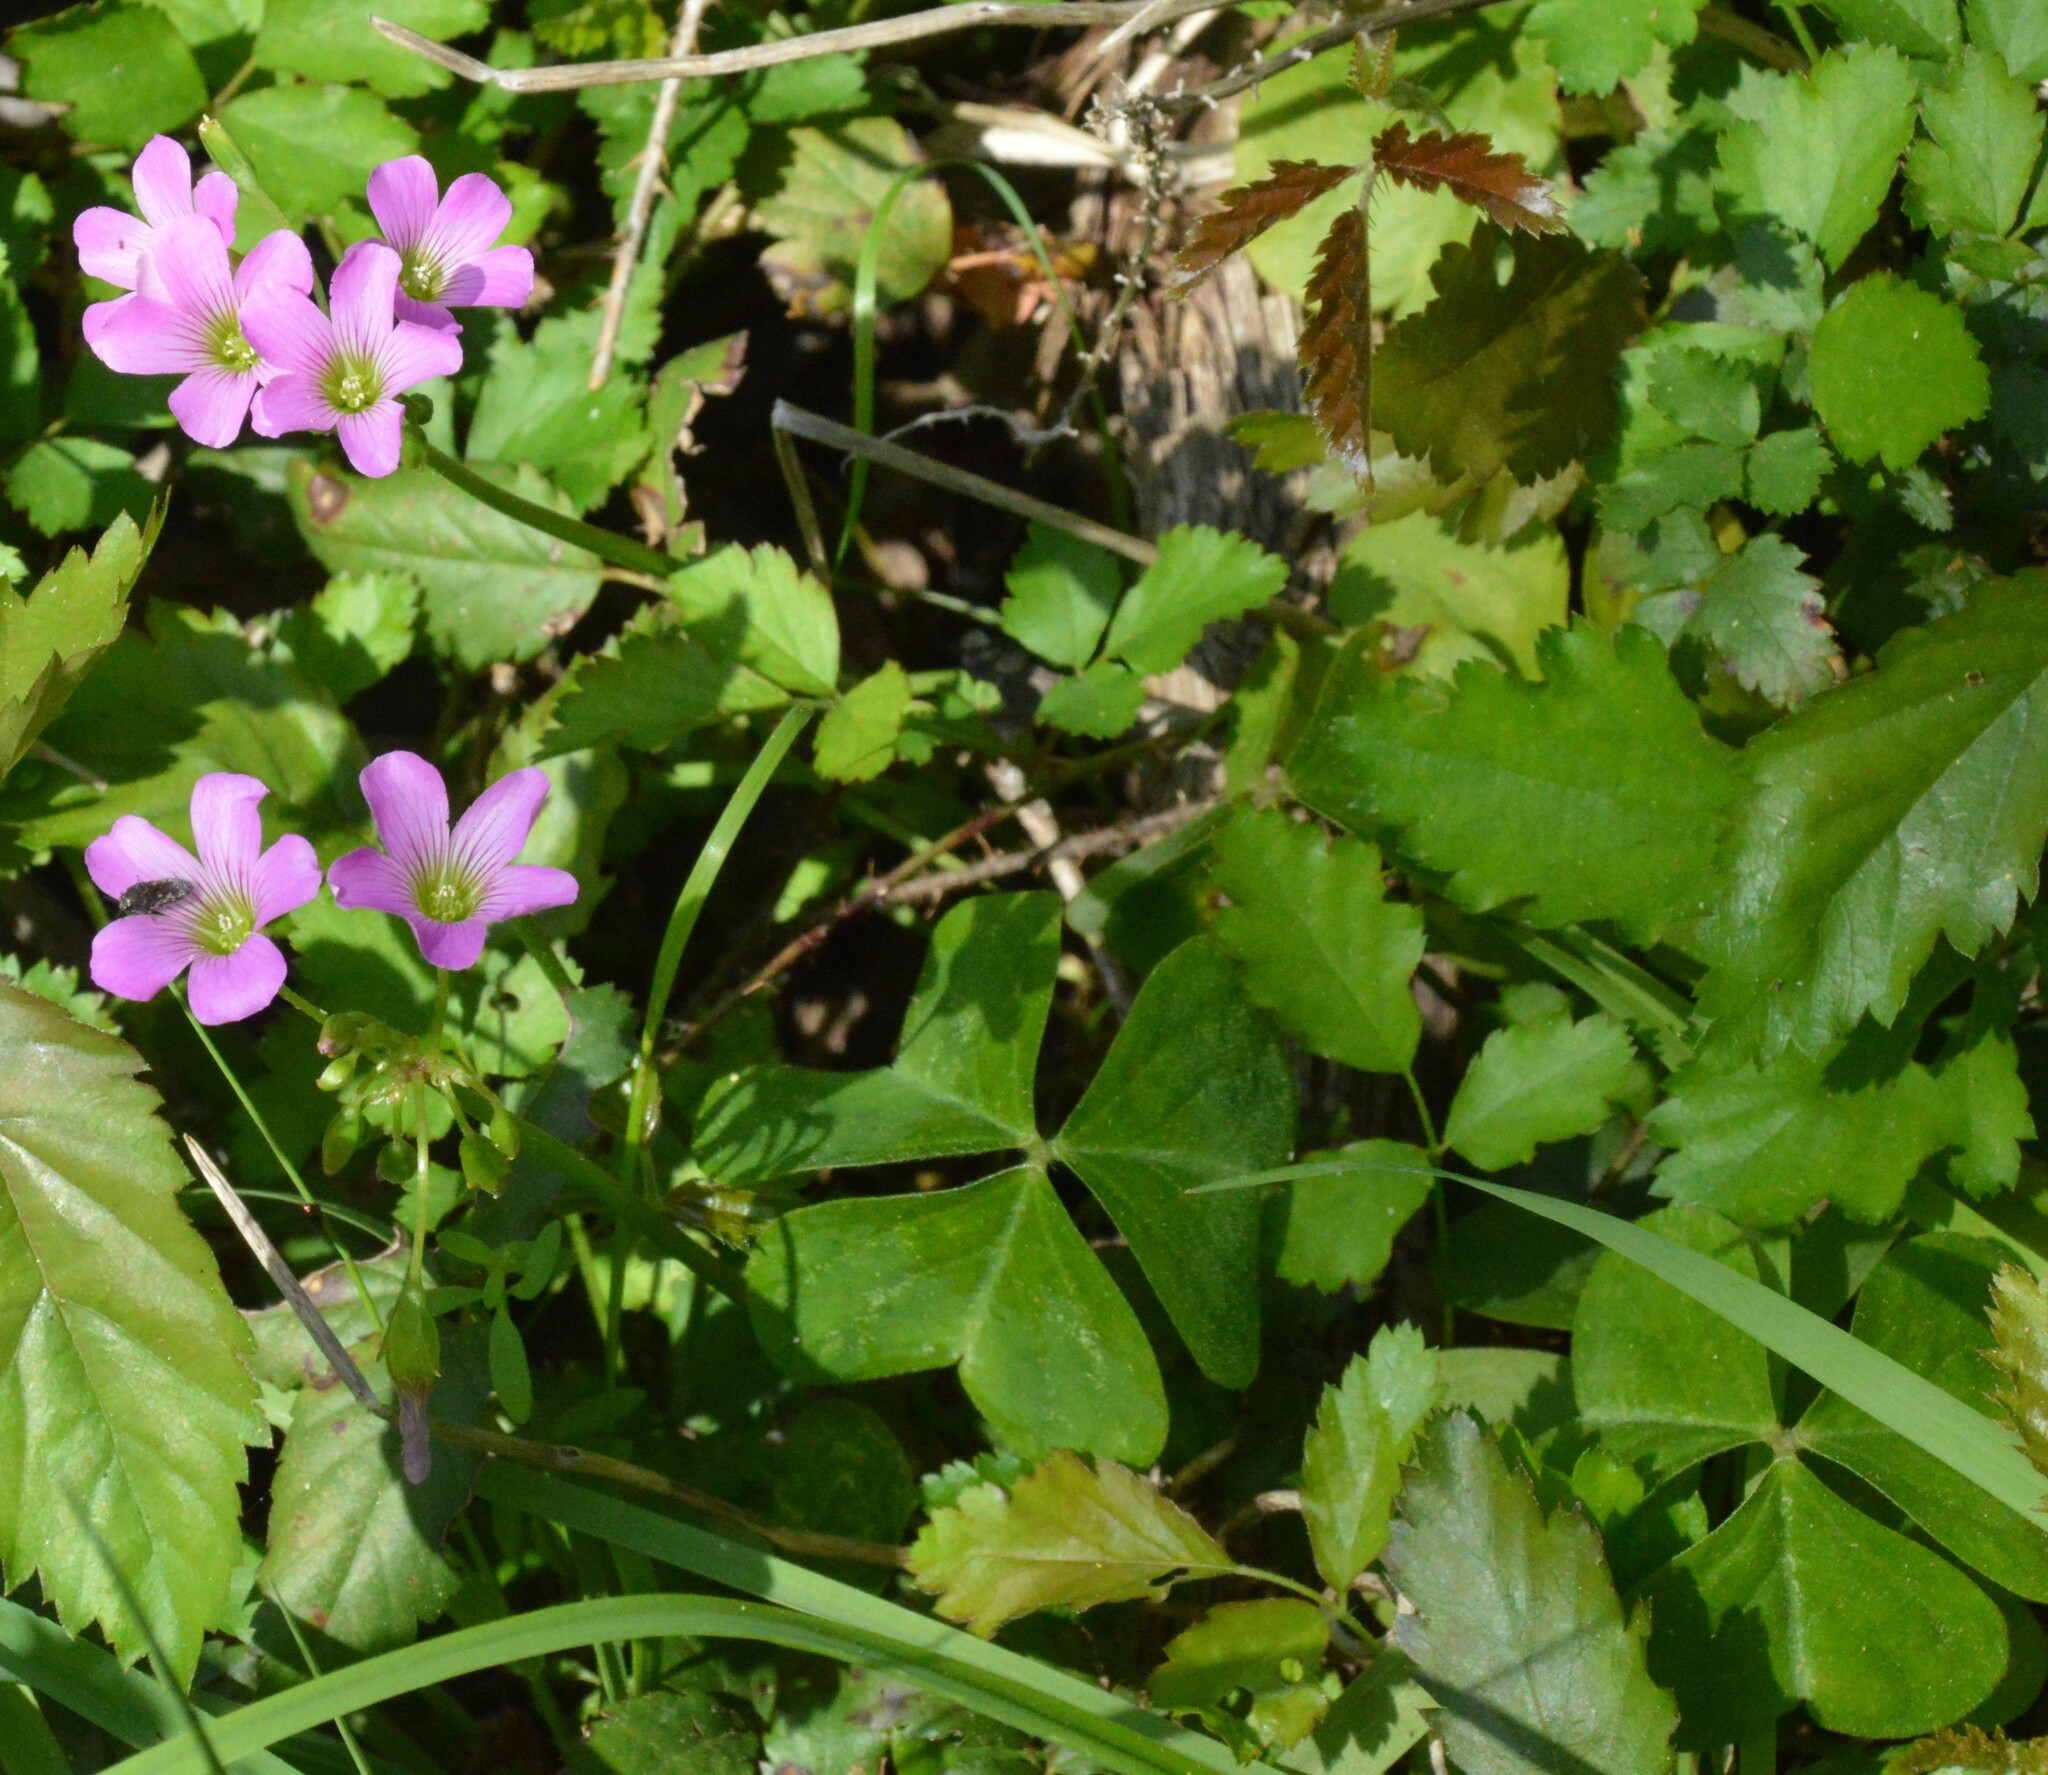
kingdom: Plantae
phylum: Tracheophyta
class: Magnoliopsida
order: Oxalidales
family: Oxalidaceae
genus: Oxalis
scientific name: Oxalis debilis
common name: Large-flowered pink-sorrel
